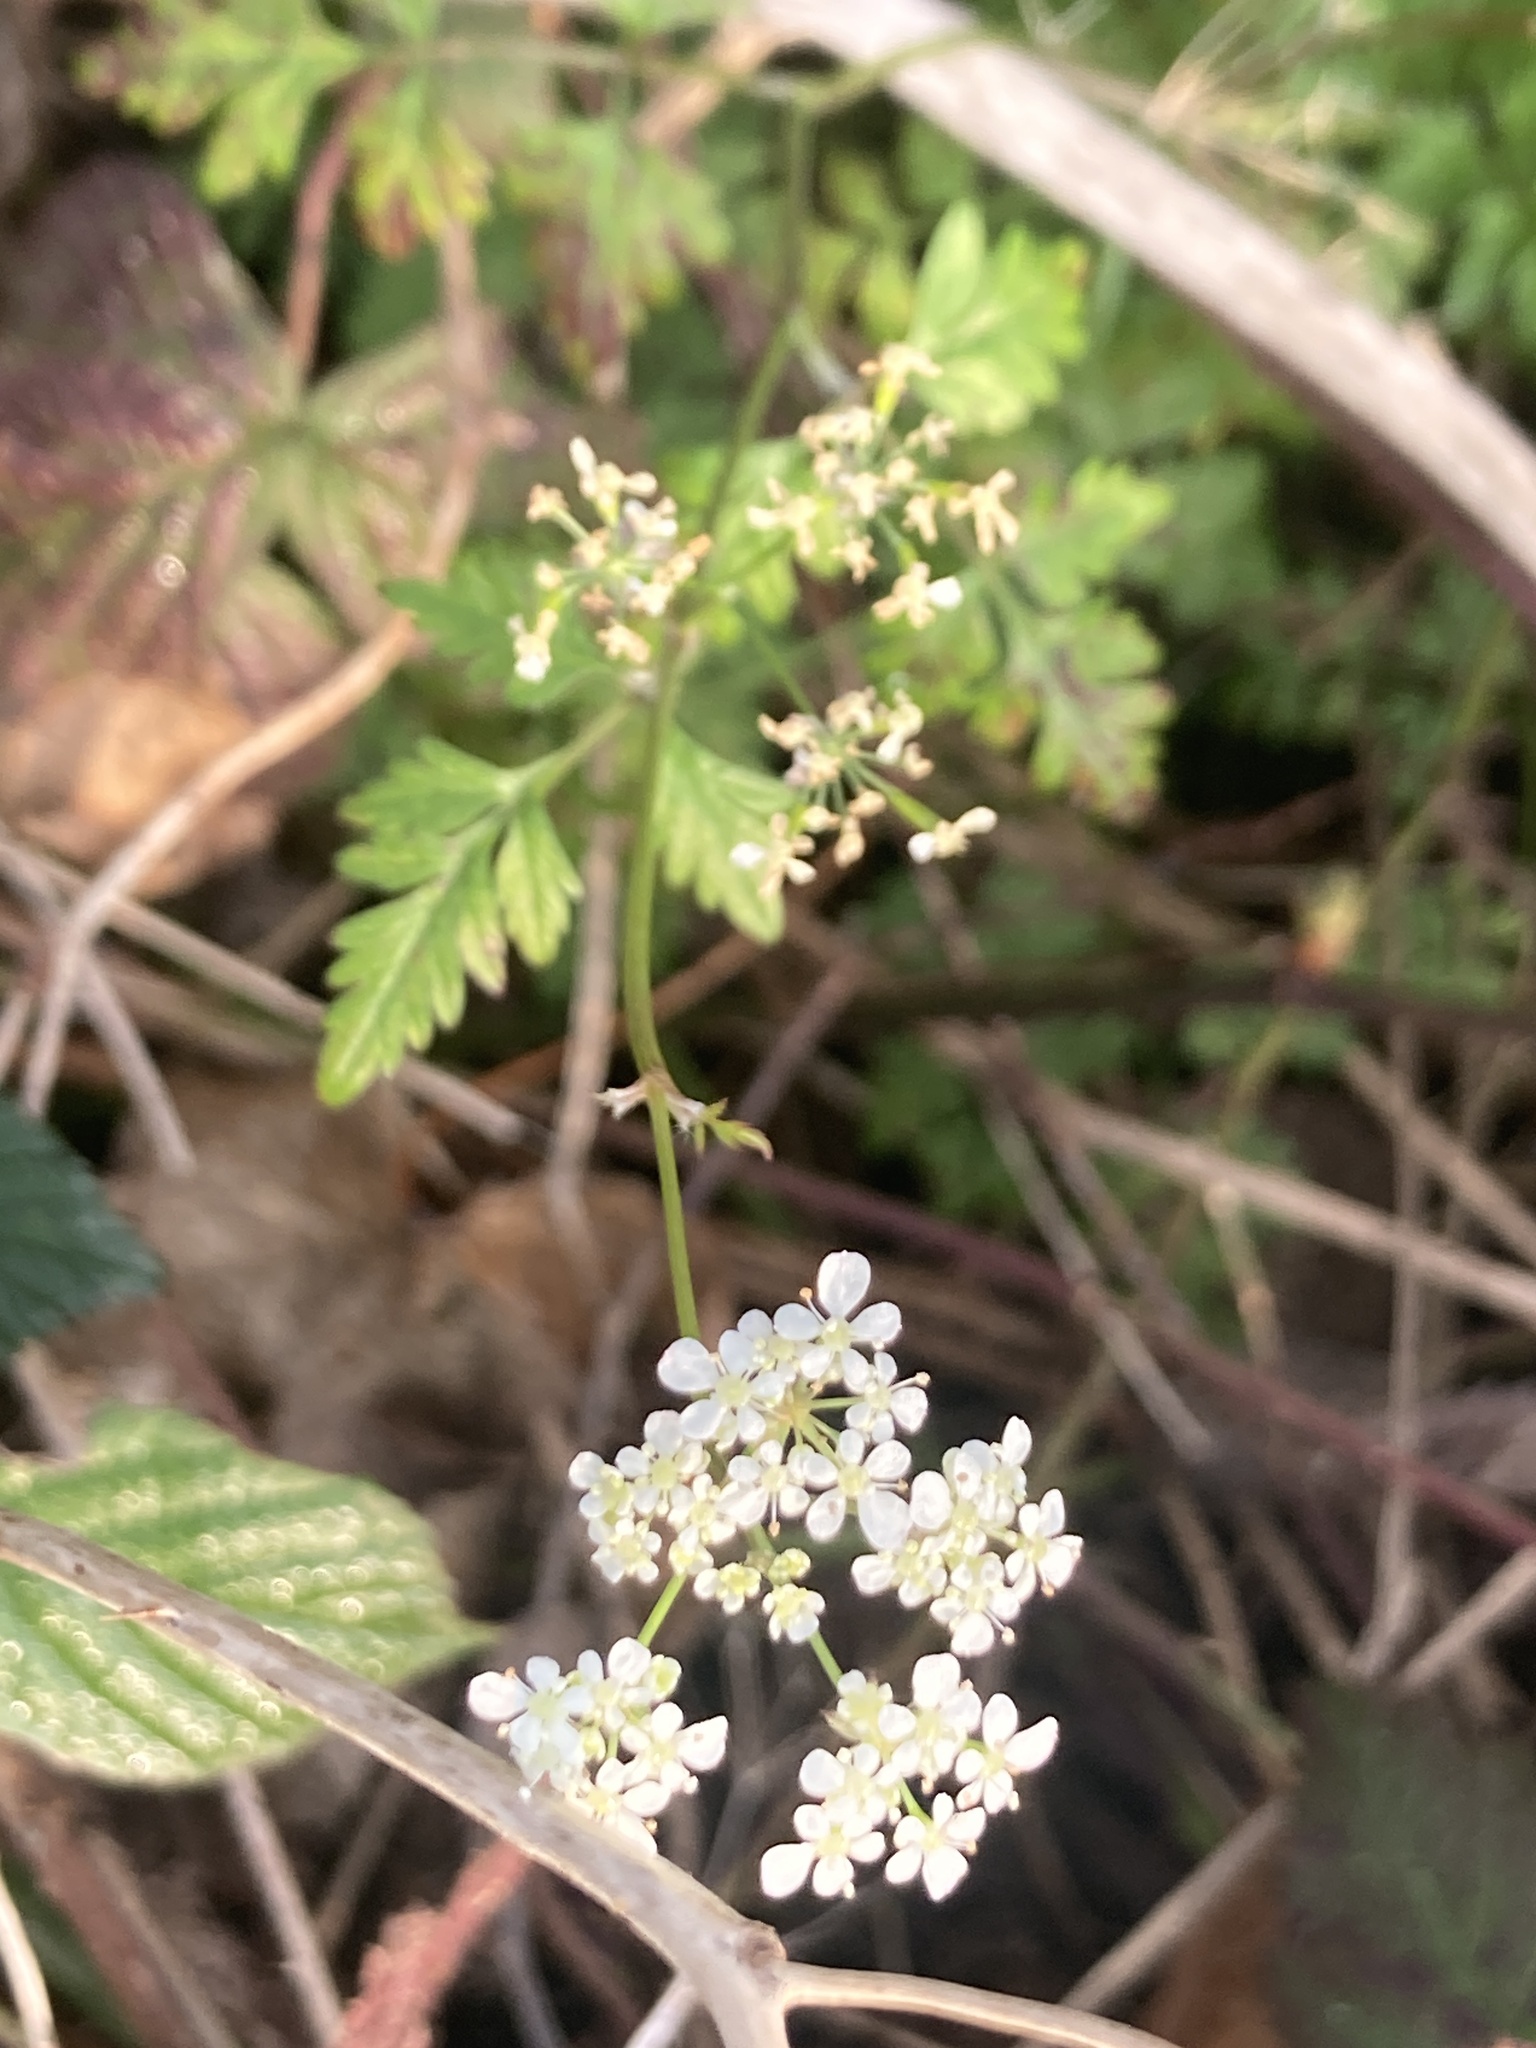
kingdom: Plantae
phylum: Tracheophyta
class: Magnoliopsida
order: Apiales
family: Apiaceae
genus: Anthriscus
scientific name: Anthriscus sylvestris
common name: Cow parsley
